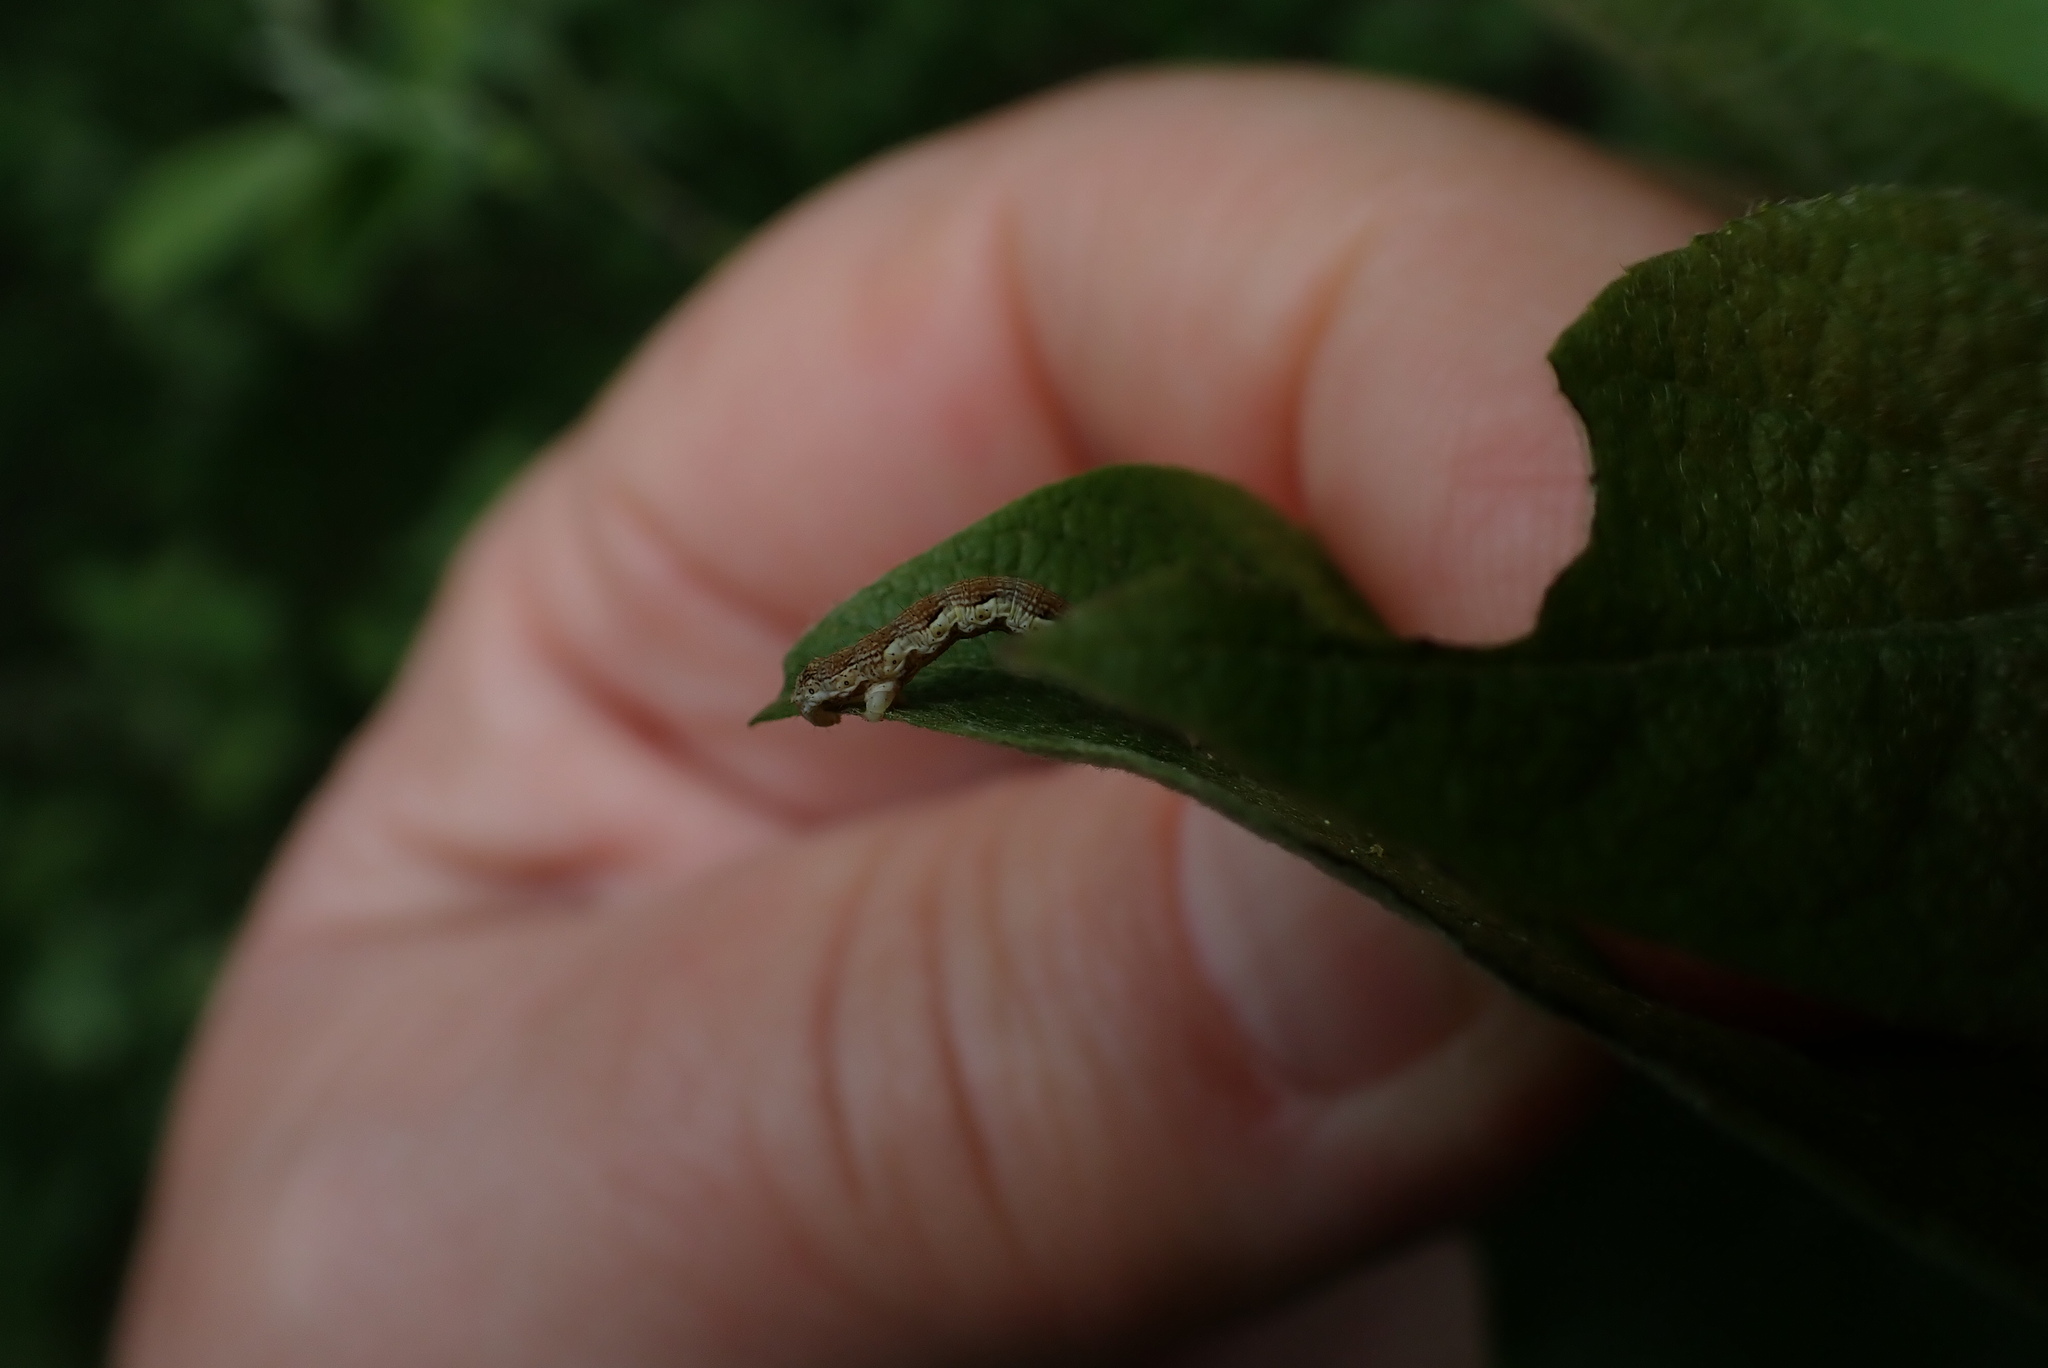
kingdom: Animalia
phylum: Arthropoda
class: Insecta
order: Lepidoptera
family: Geometridae
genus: Erannis
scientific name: Erannis defoliaria
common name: Mottled umber
